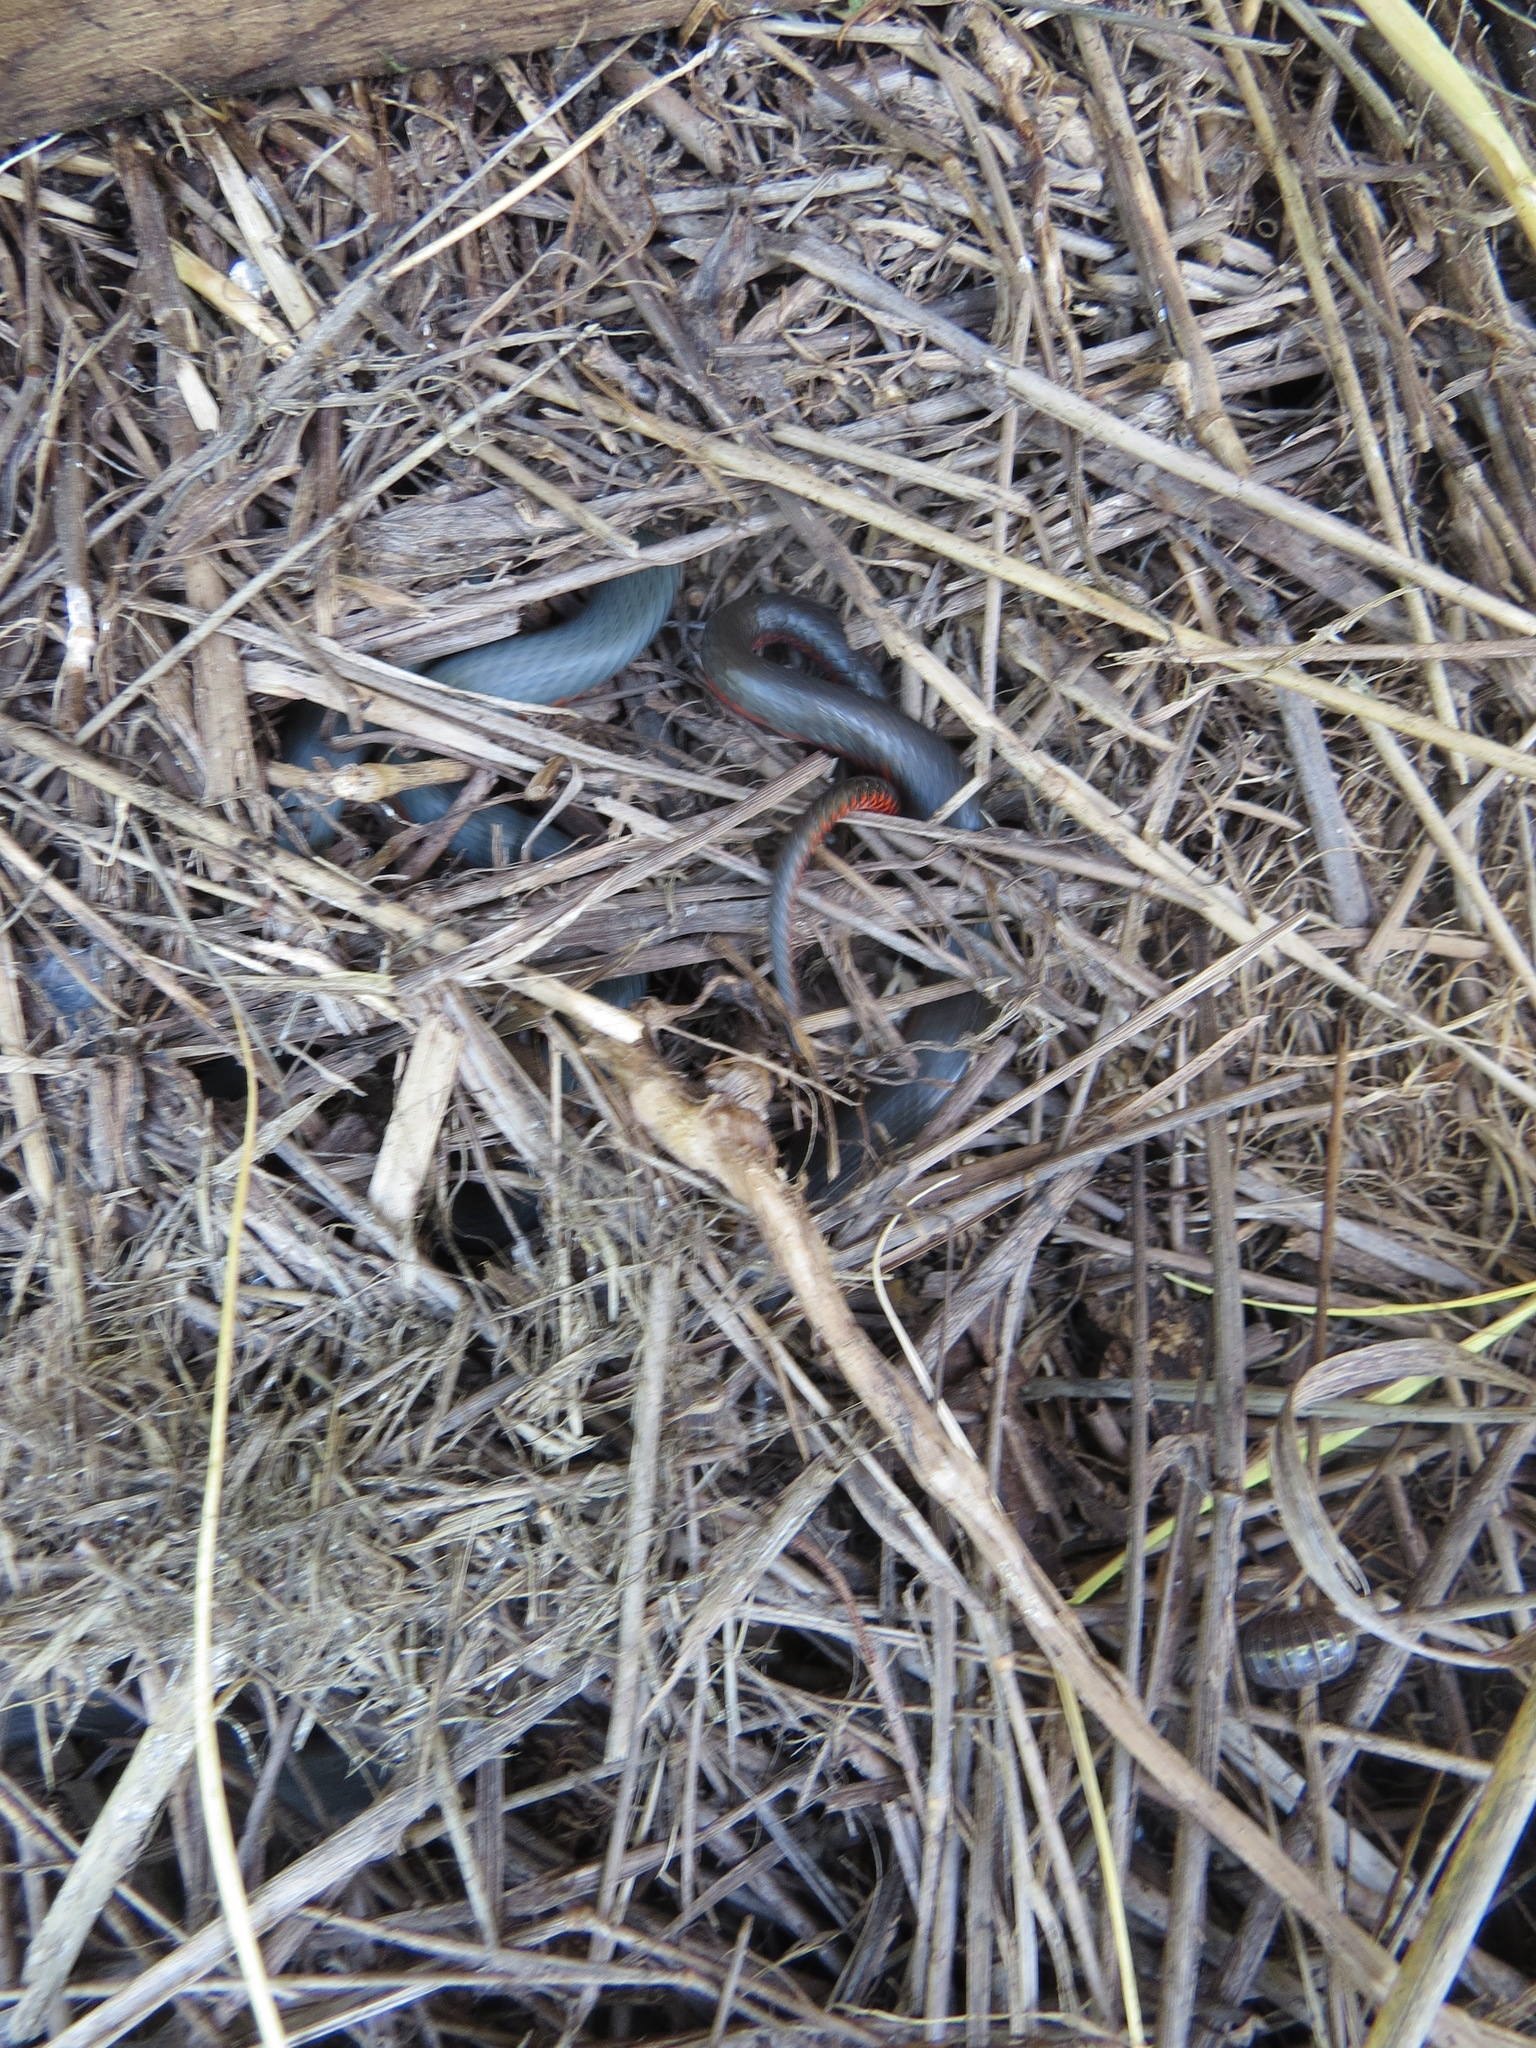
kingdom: Animalia
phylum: Chordata
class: Squamata
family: Colubridae
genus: Diadophis
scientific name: Diadophis punctatus
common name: Ringneck snake
